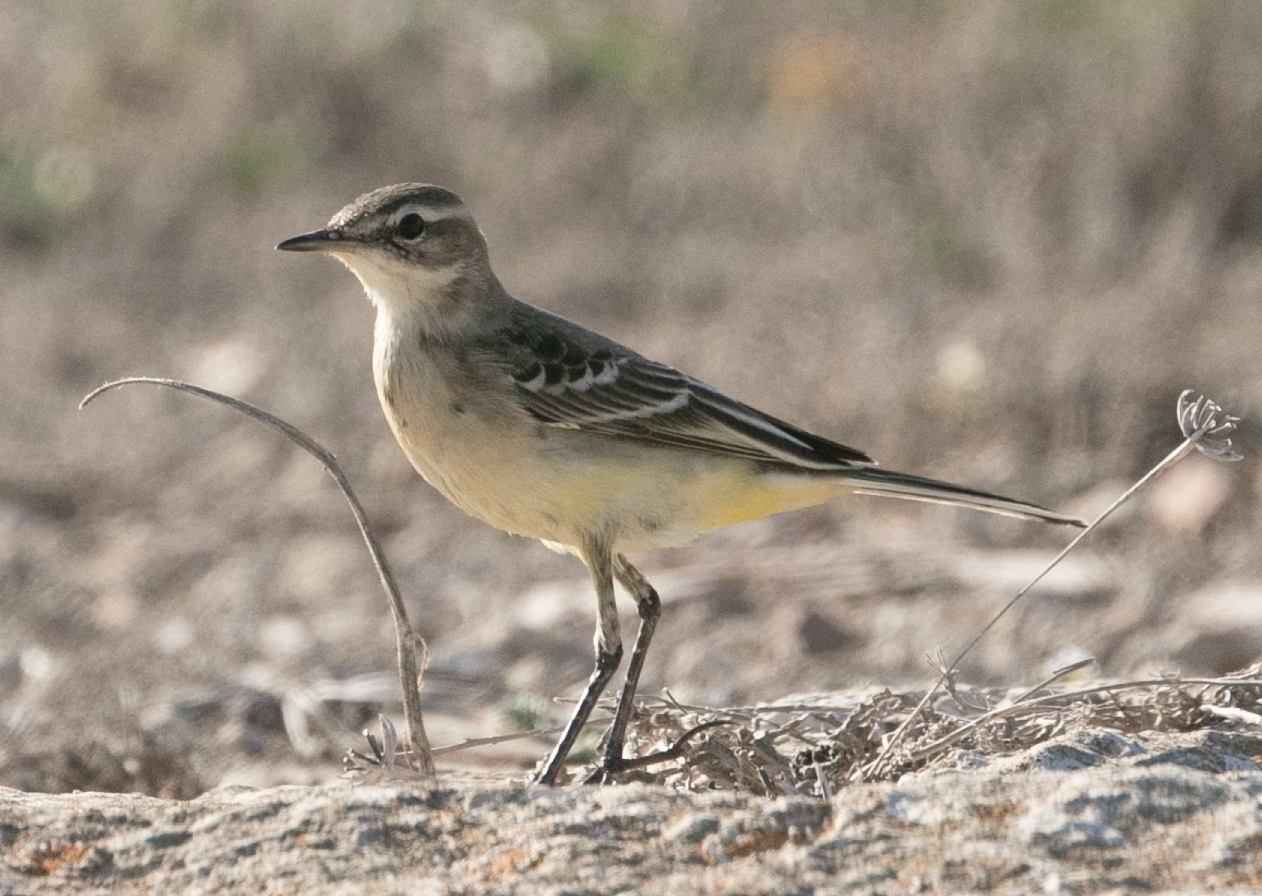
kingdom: Animalia
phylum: Chordata
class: Aves
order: Passeriformes
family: Motacillidae
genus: Motacilla
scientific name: Motacilla flava
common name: Western yellow wagtail
